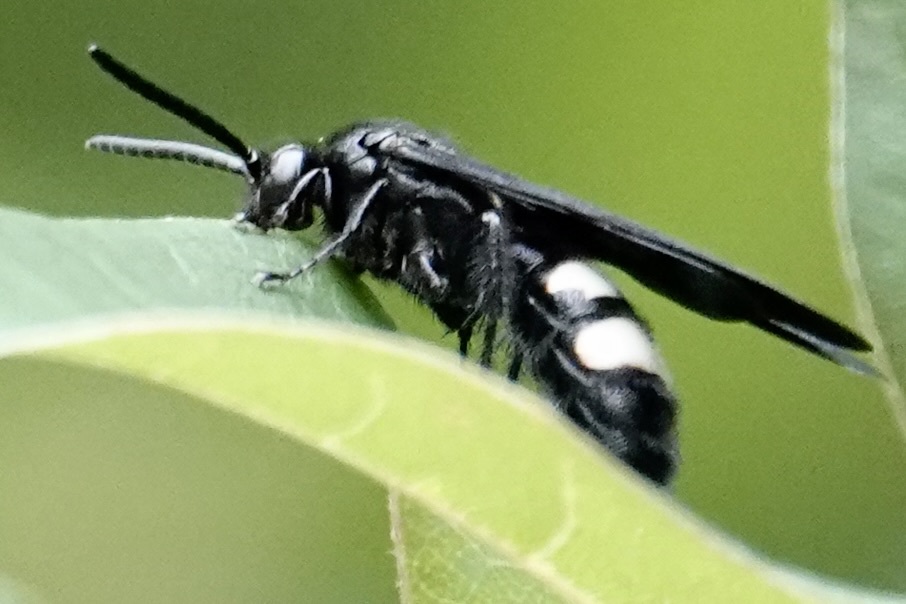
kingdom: Animalia
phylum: Arthropoda
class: Insecta
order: Hymenoptera
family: Scoliidae
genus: Scolia
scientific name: Scolia bicincta
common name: Double-banded scoliid wasp
